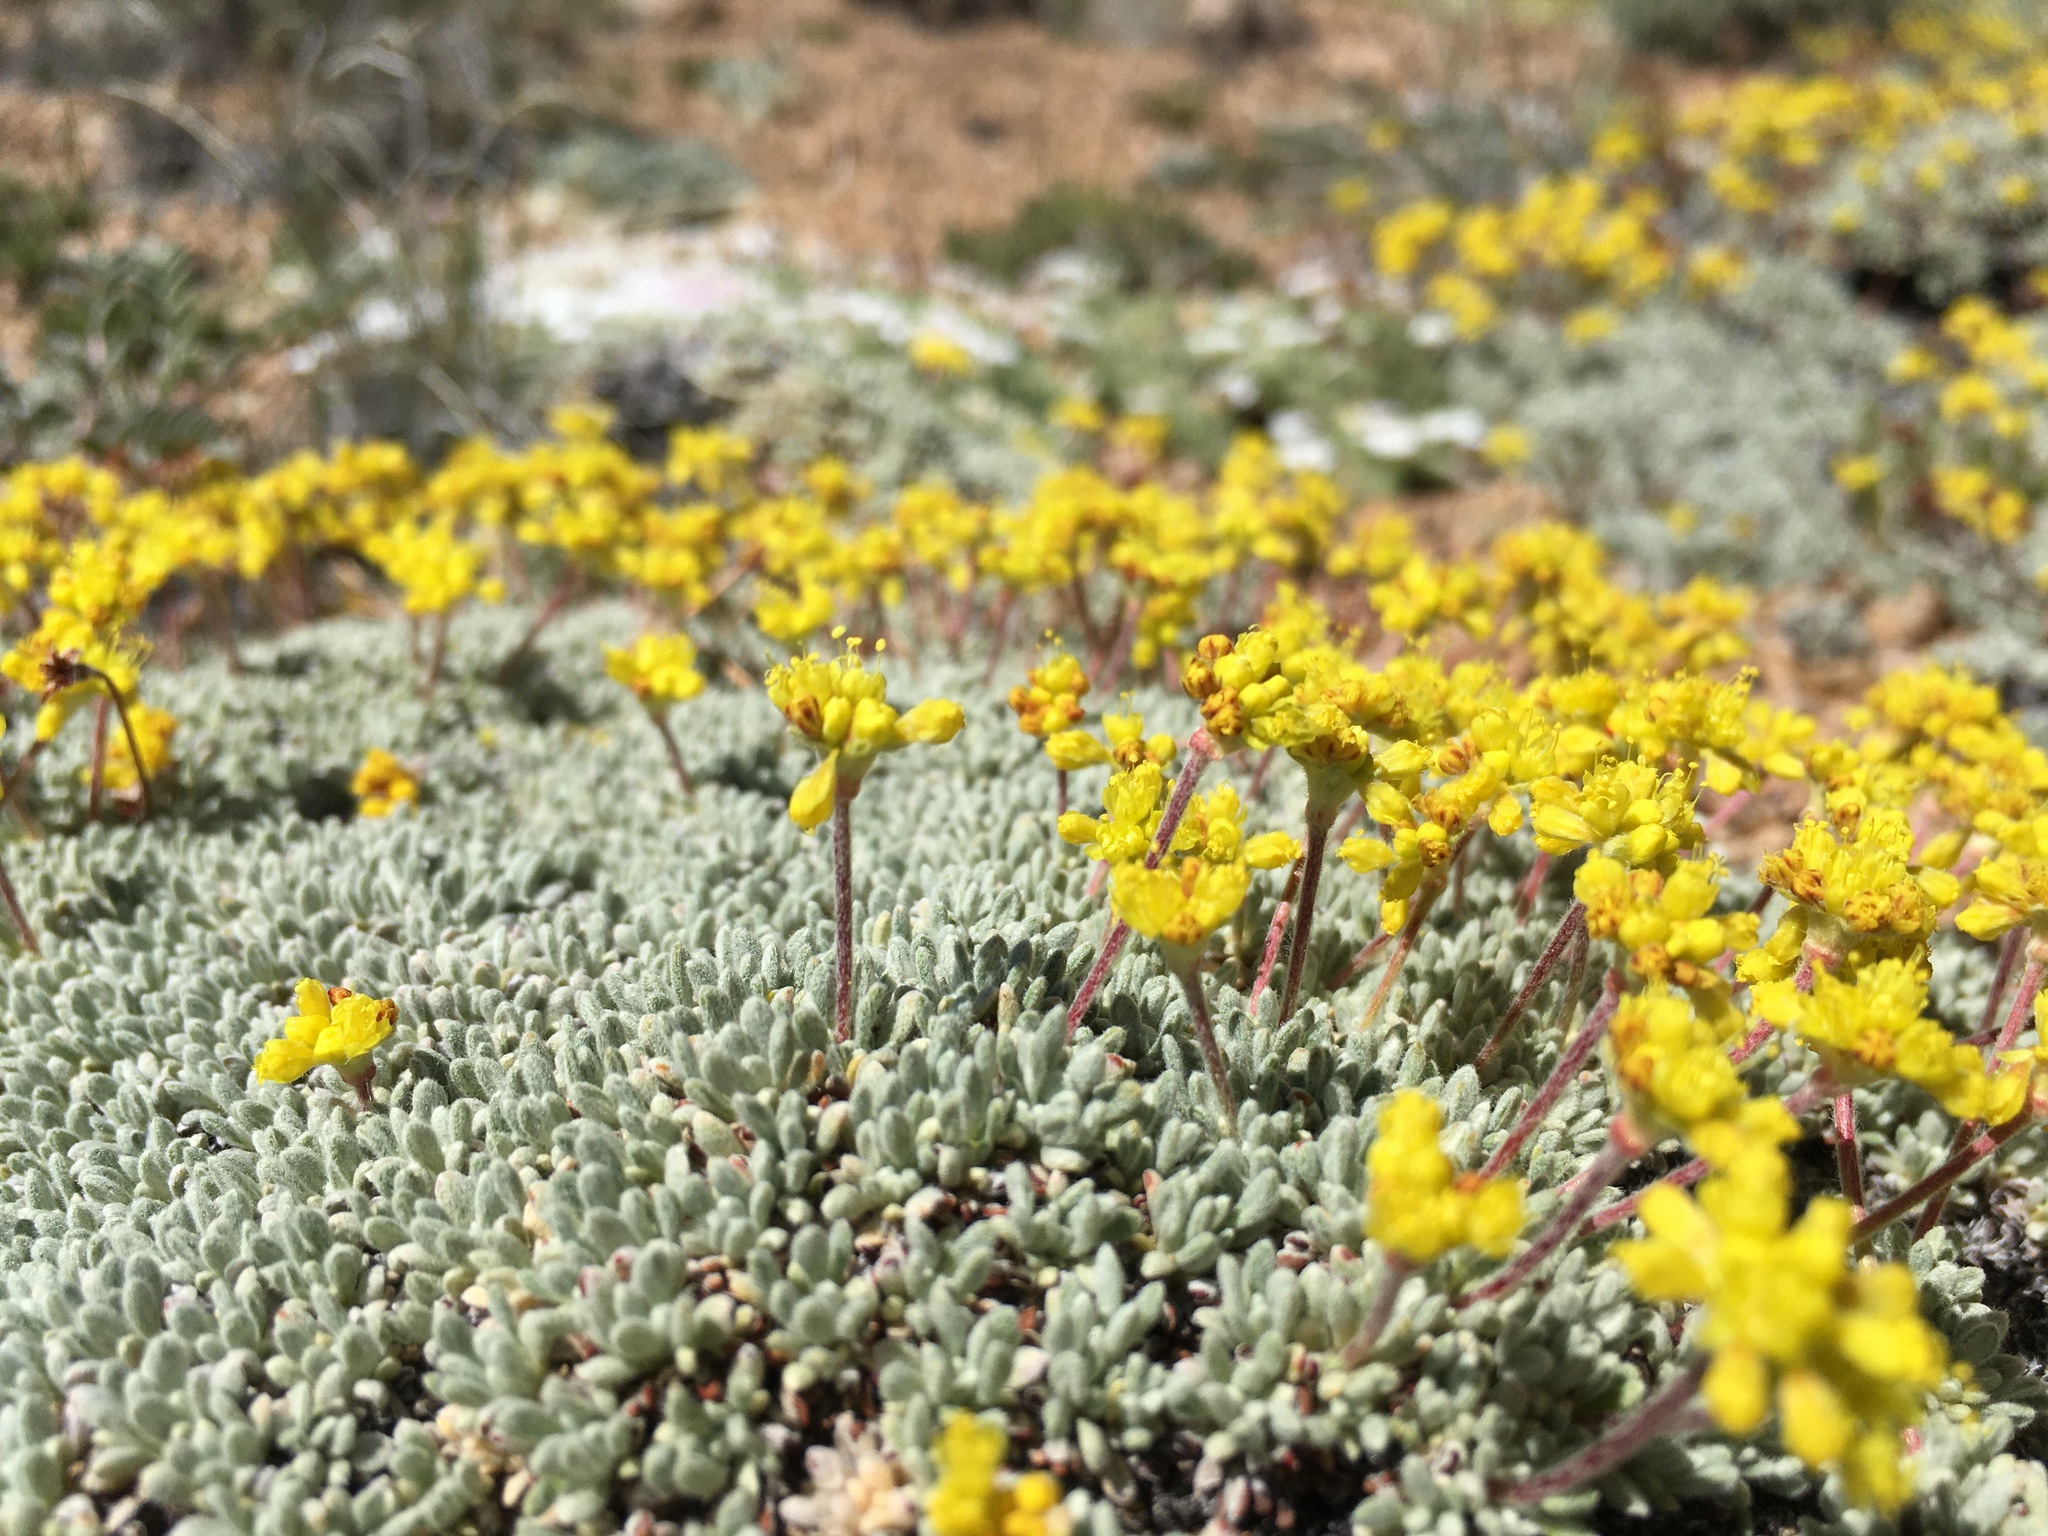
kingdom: Plantae
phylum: Tracheophyta
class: Magnoliopsida
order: Caryophyllales
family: Polygonaceae
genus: Eriogonum
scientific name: Eriogonum caespitosum
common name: Matted wild buckwheat
